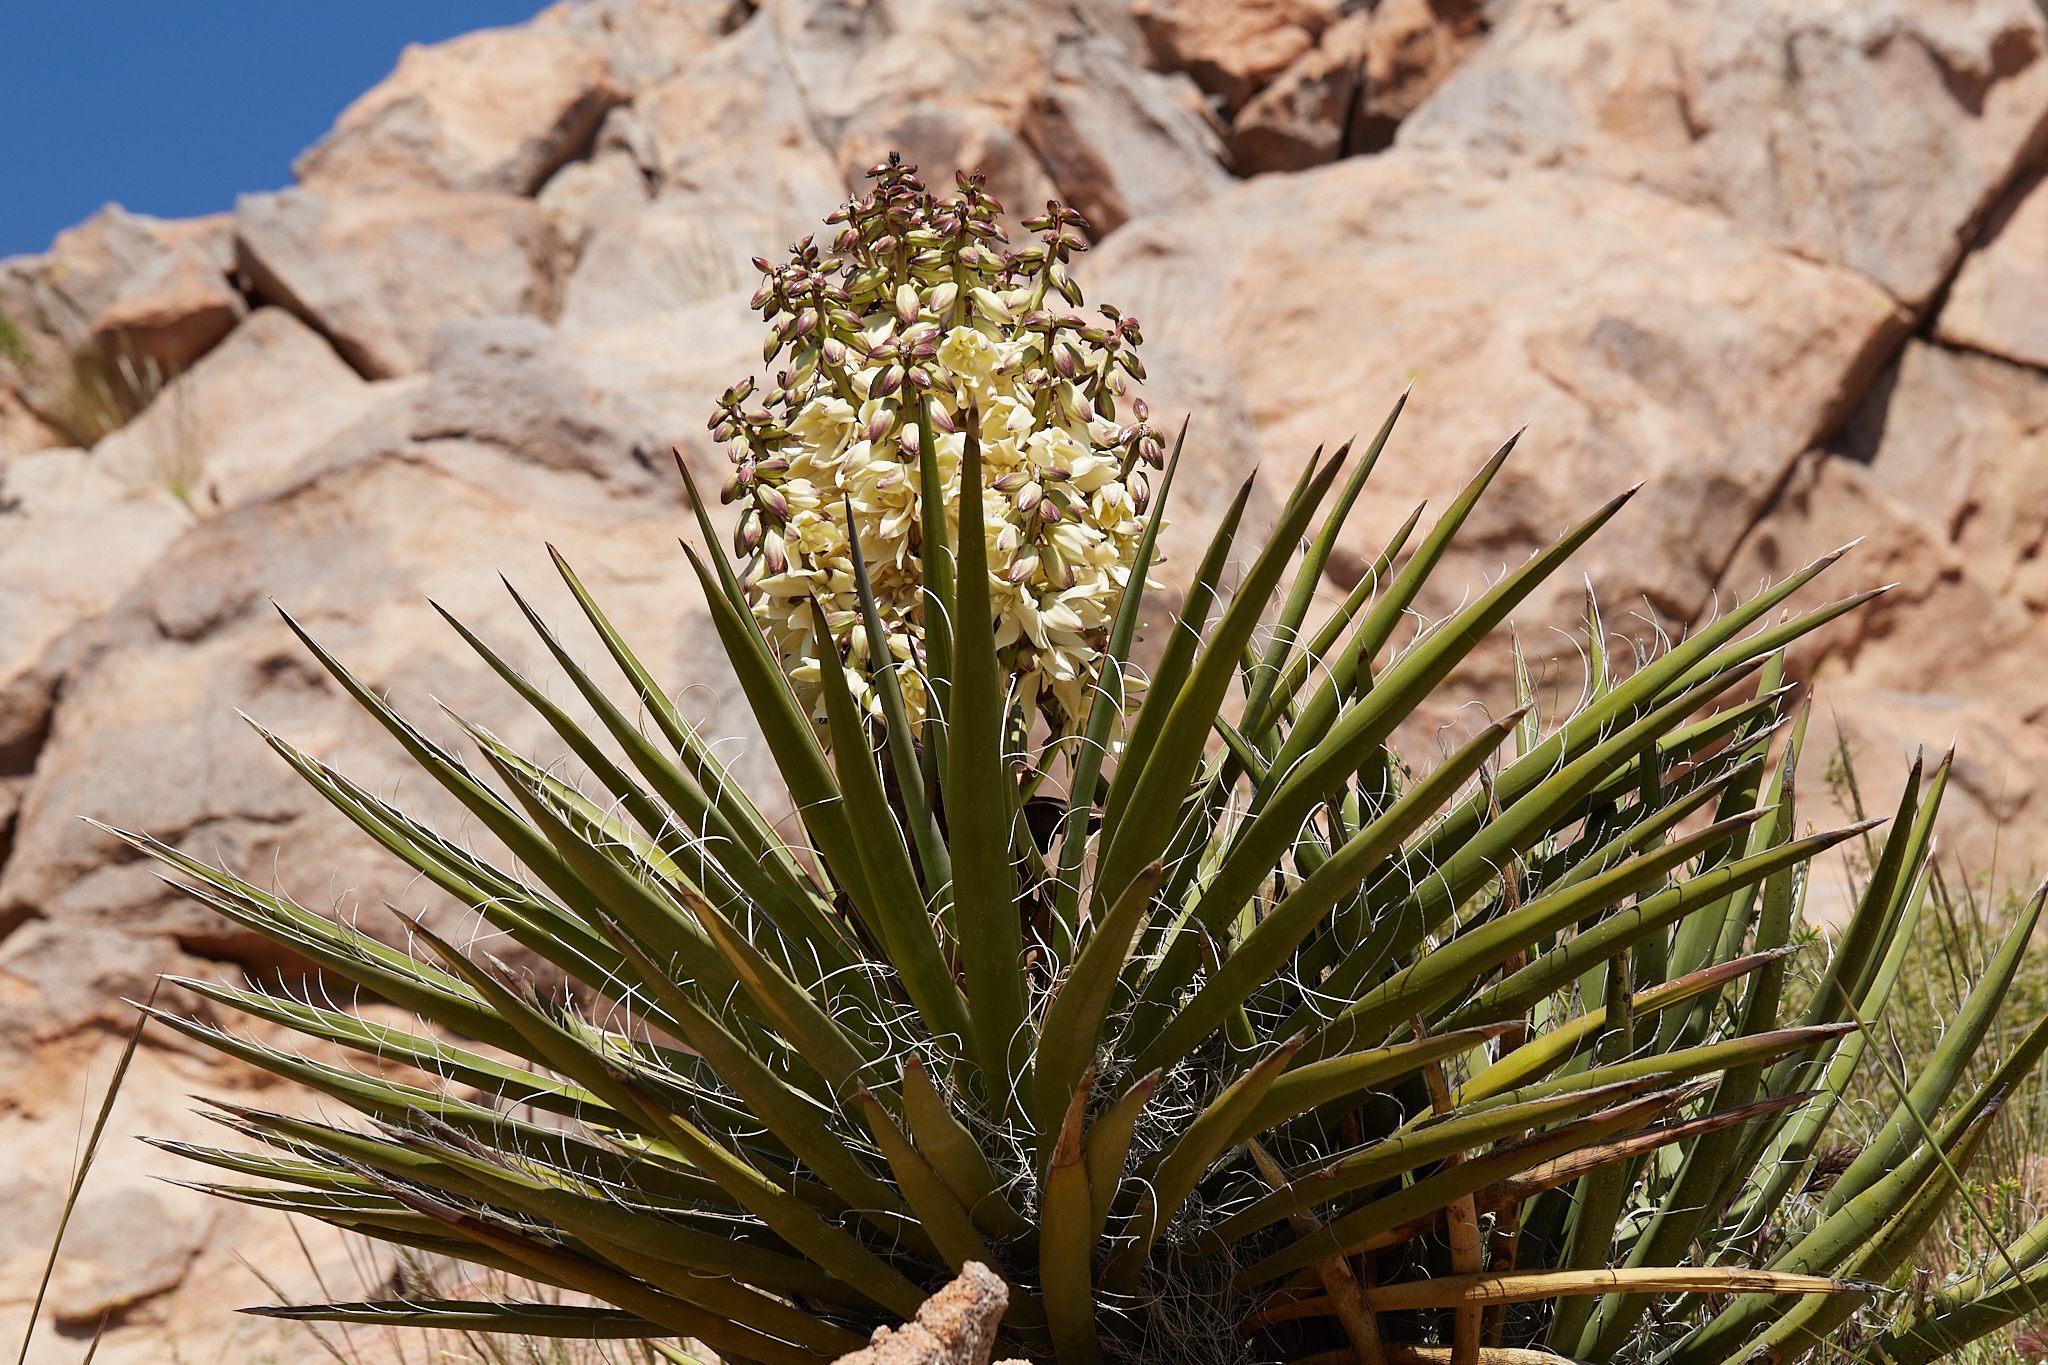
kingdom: Plantae
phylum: Tracheophyta
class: Liliopsida
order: Asparagales
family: Asparagaceae
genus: Yucca
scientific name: Yucca schidigera
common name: Mojave yucca
